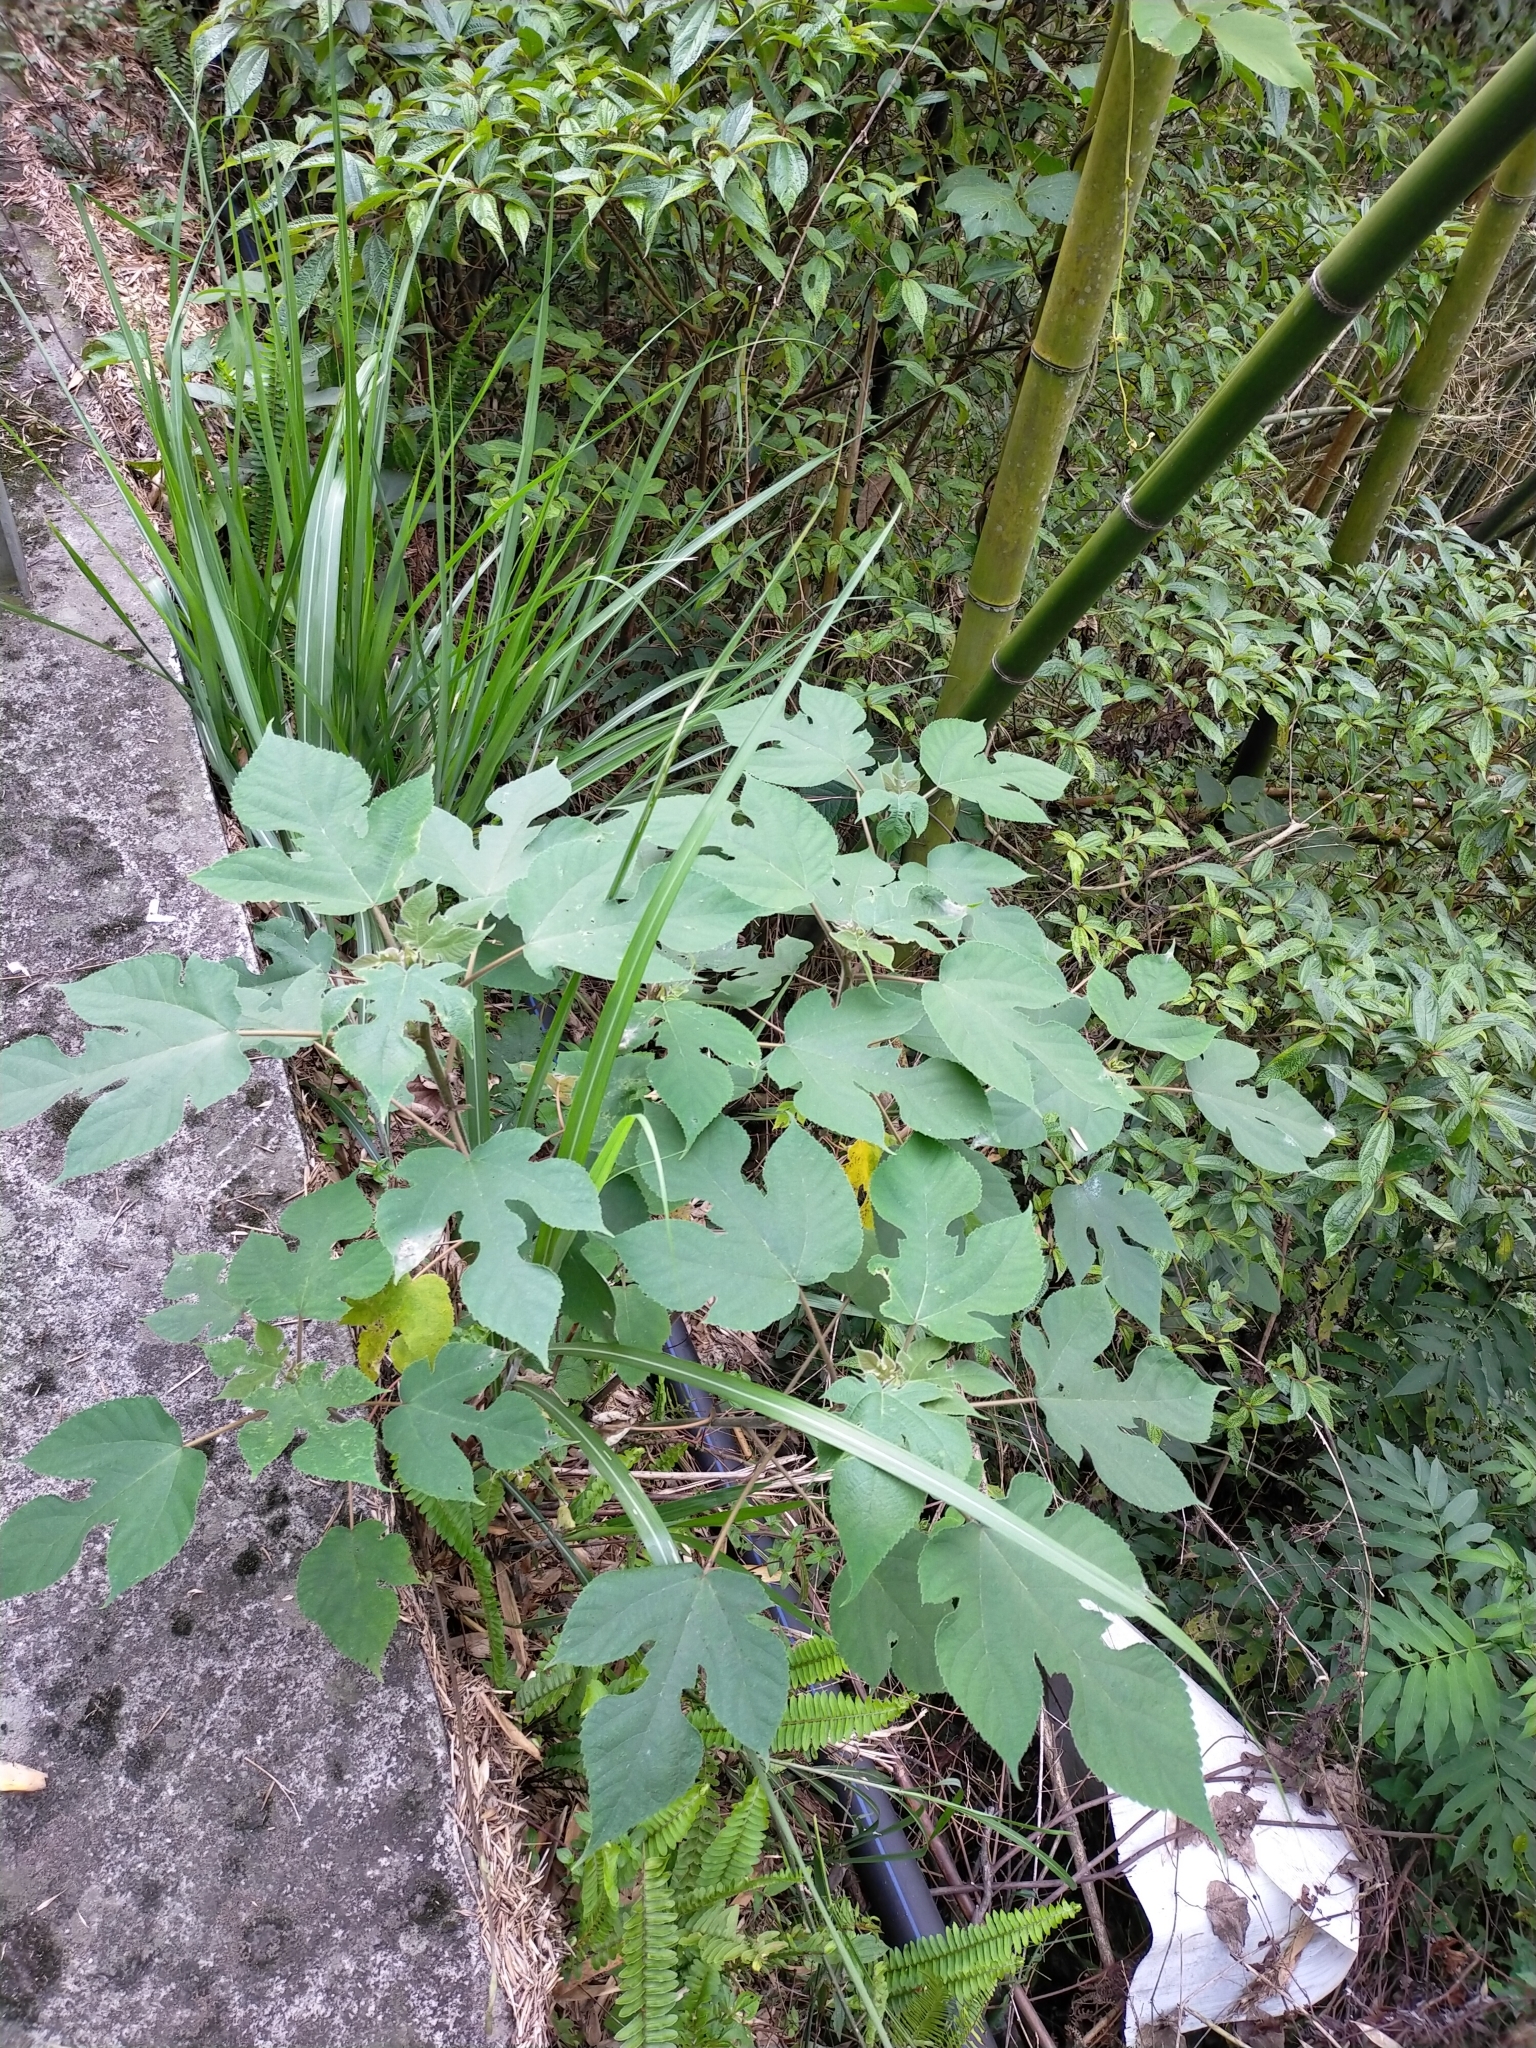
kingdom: Plantae
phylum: Tracheophyta
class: Magnoliopsida
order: Rosales
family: Moraceae
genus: Broussonetia
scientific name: Broussonetia papyrifera
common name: Paper mulberry
